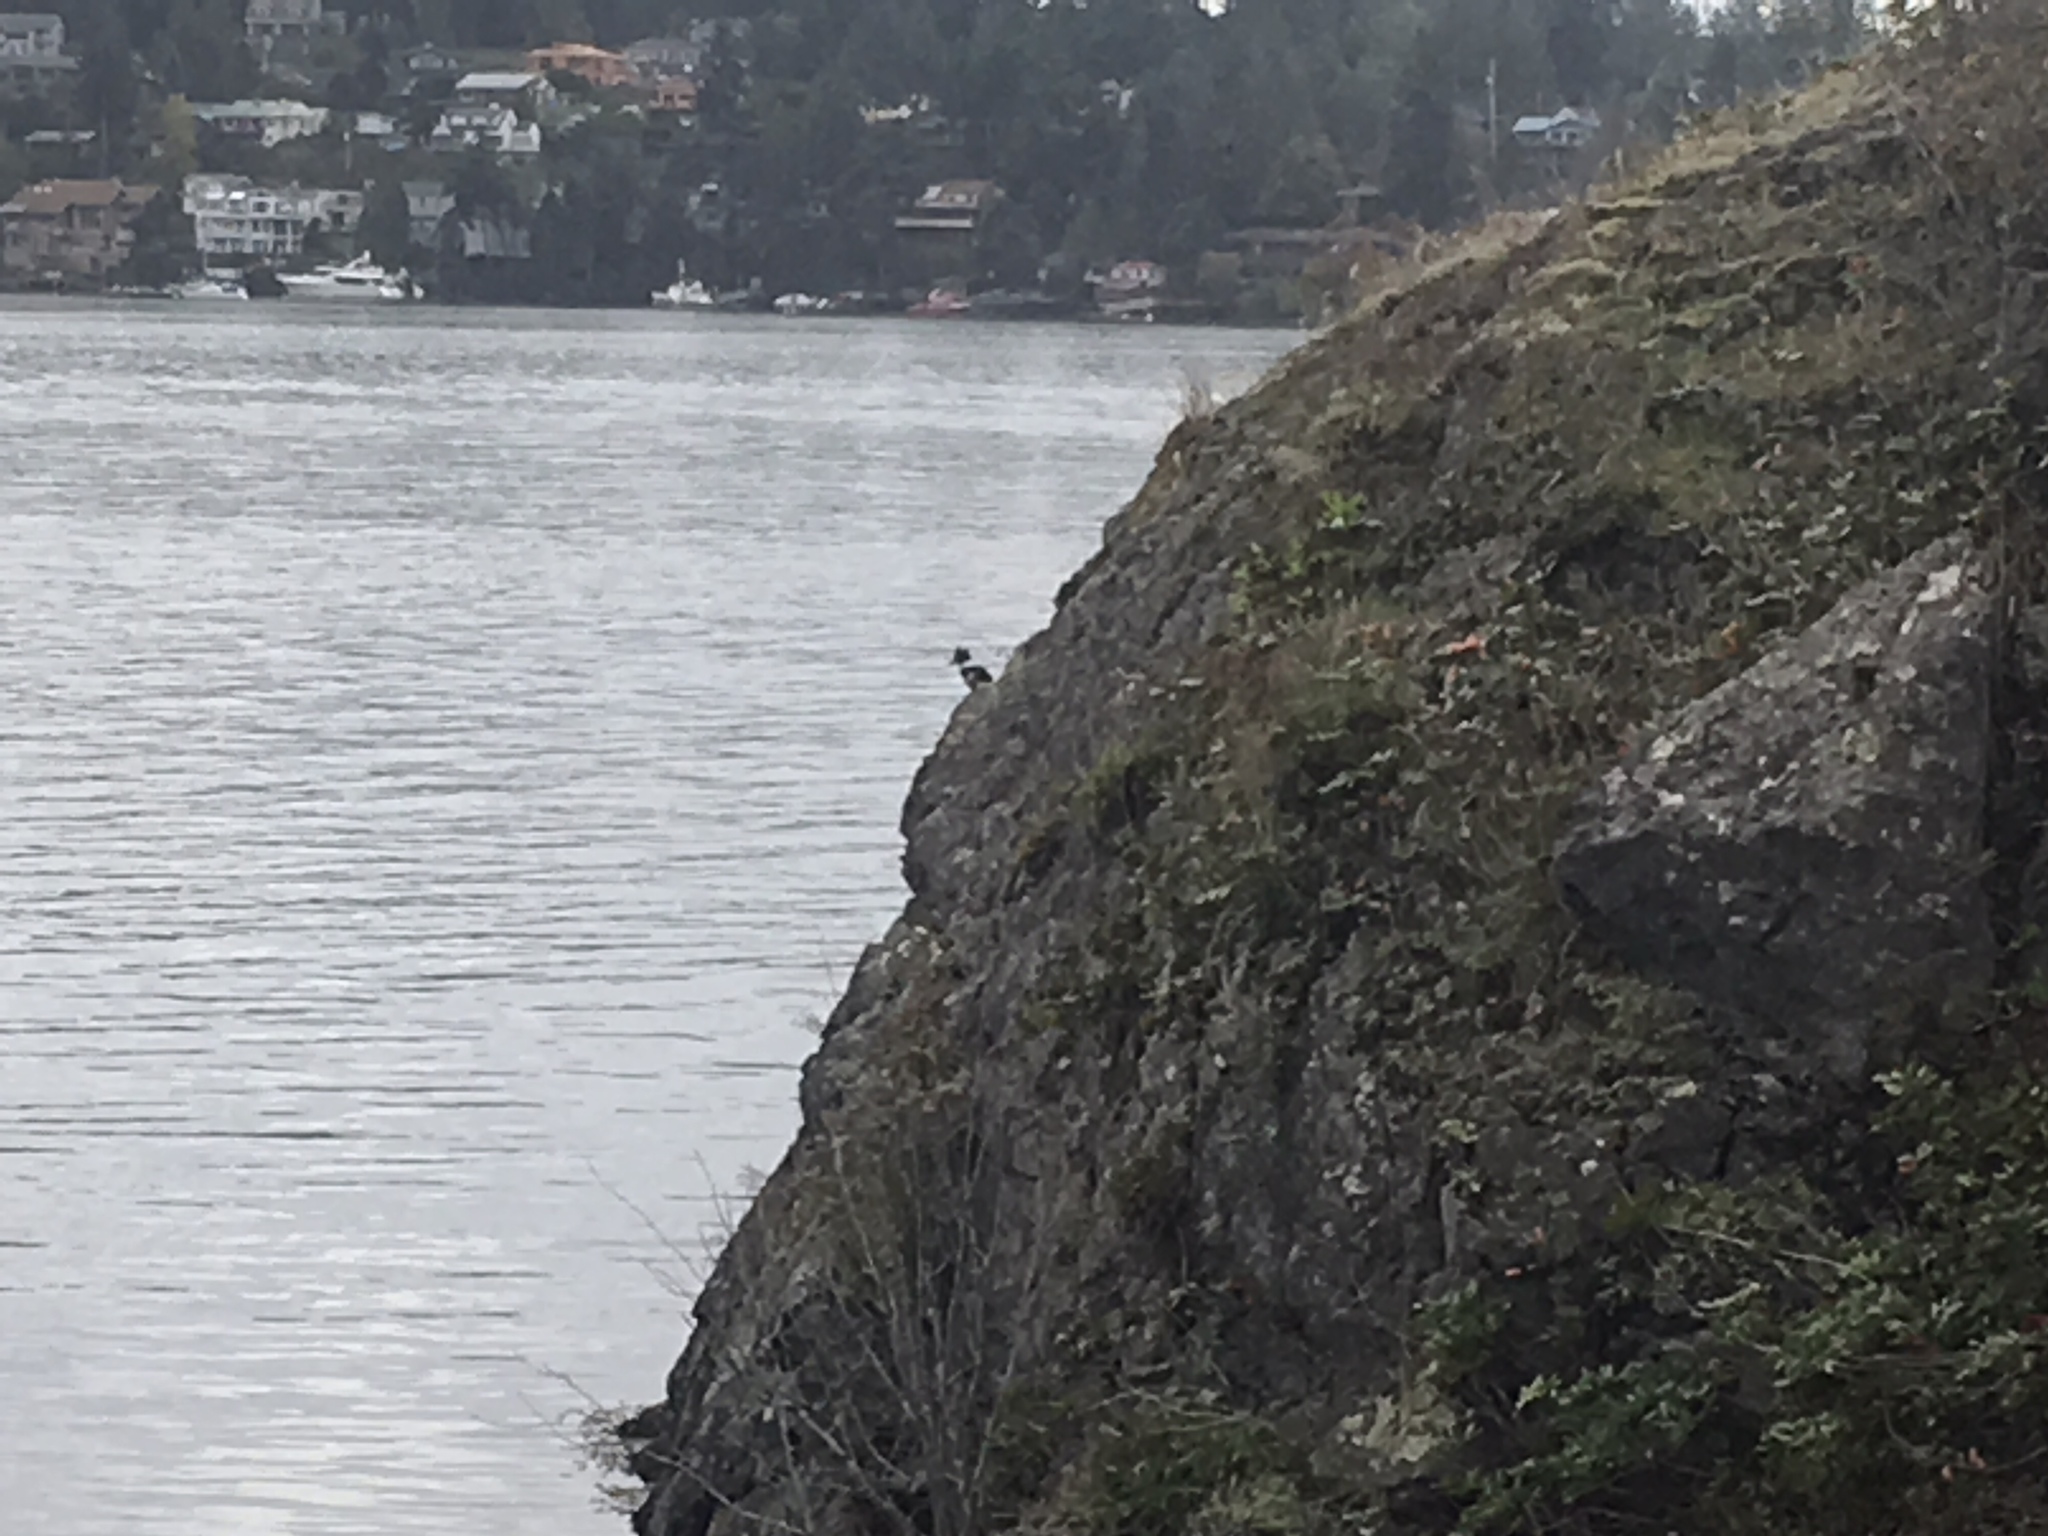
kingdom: Animalia
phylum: Chordata
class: Aves
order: Coraciiformes
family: Alcedinidae
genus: Megaceryle
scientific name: Megaceryle alcyon
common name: Belted kingfisher
